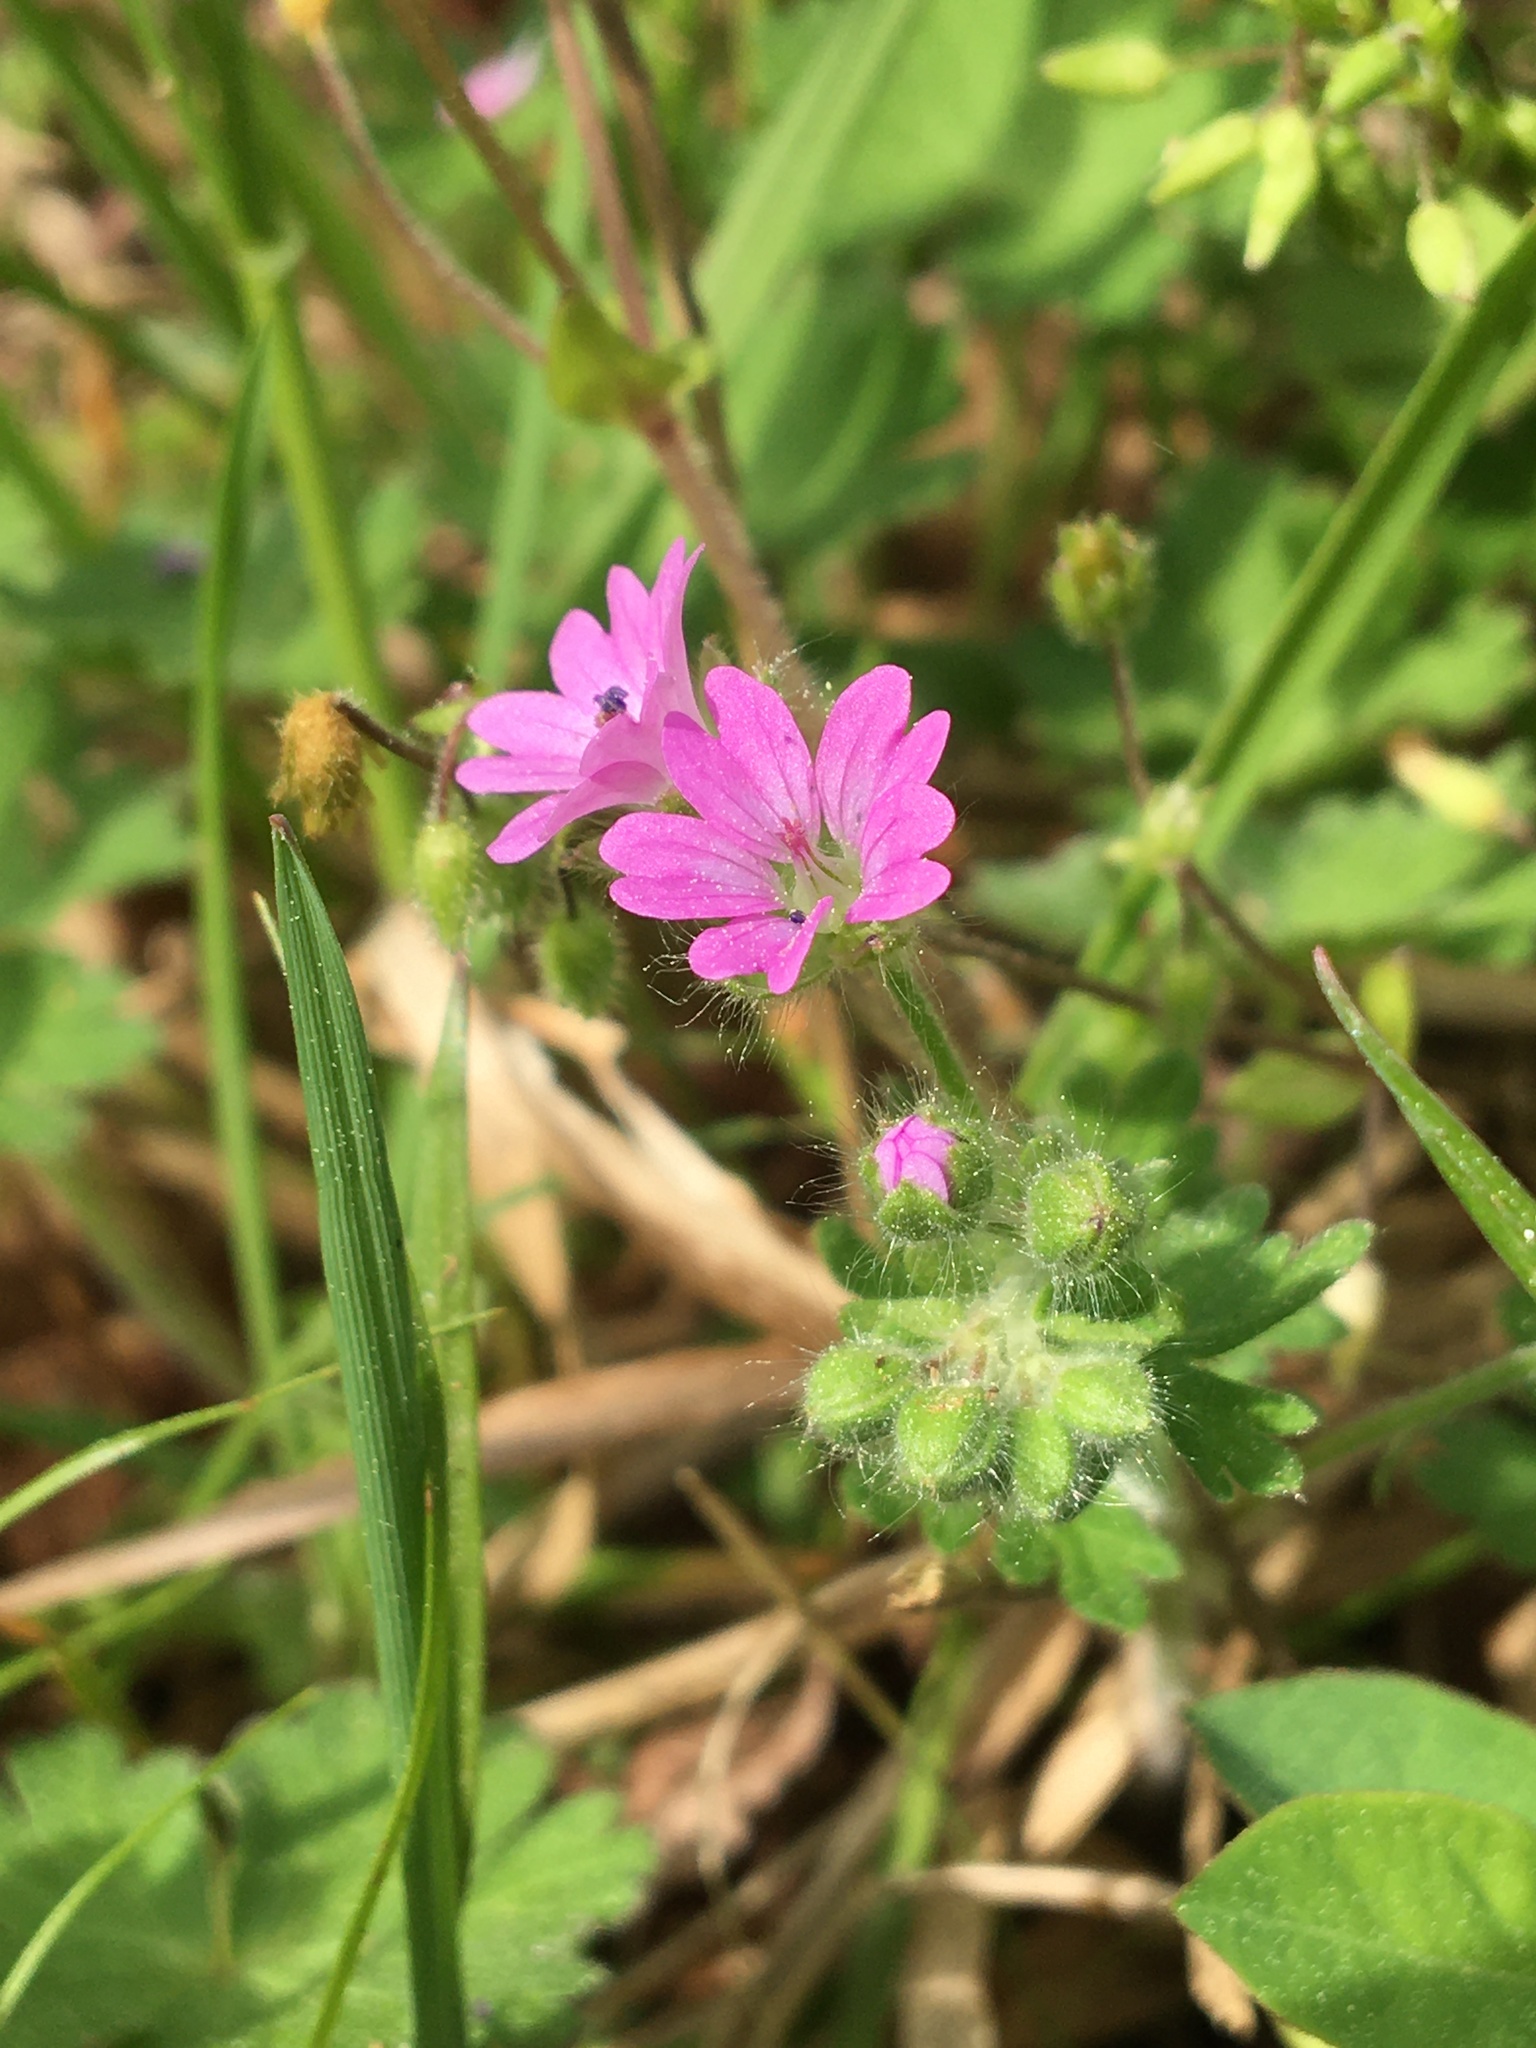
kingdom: Plantae
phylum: Tracheophyta
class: Magnoliopsida
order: Geraniales
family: Geraniaceae
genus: Geranium
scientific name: Geranium molle
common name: Dove's-foot crane's-bill
